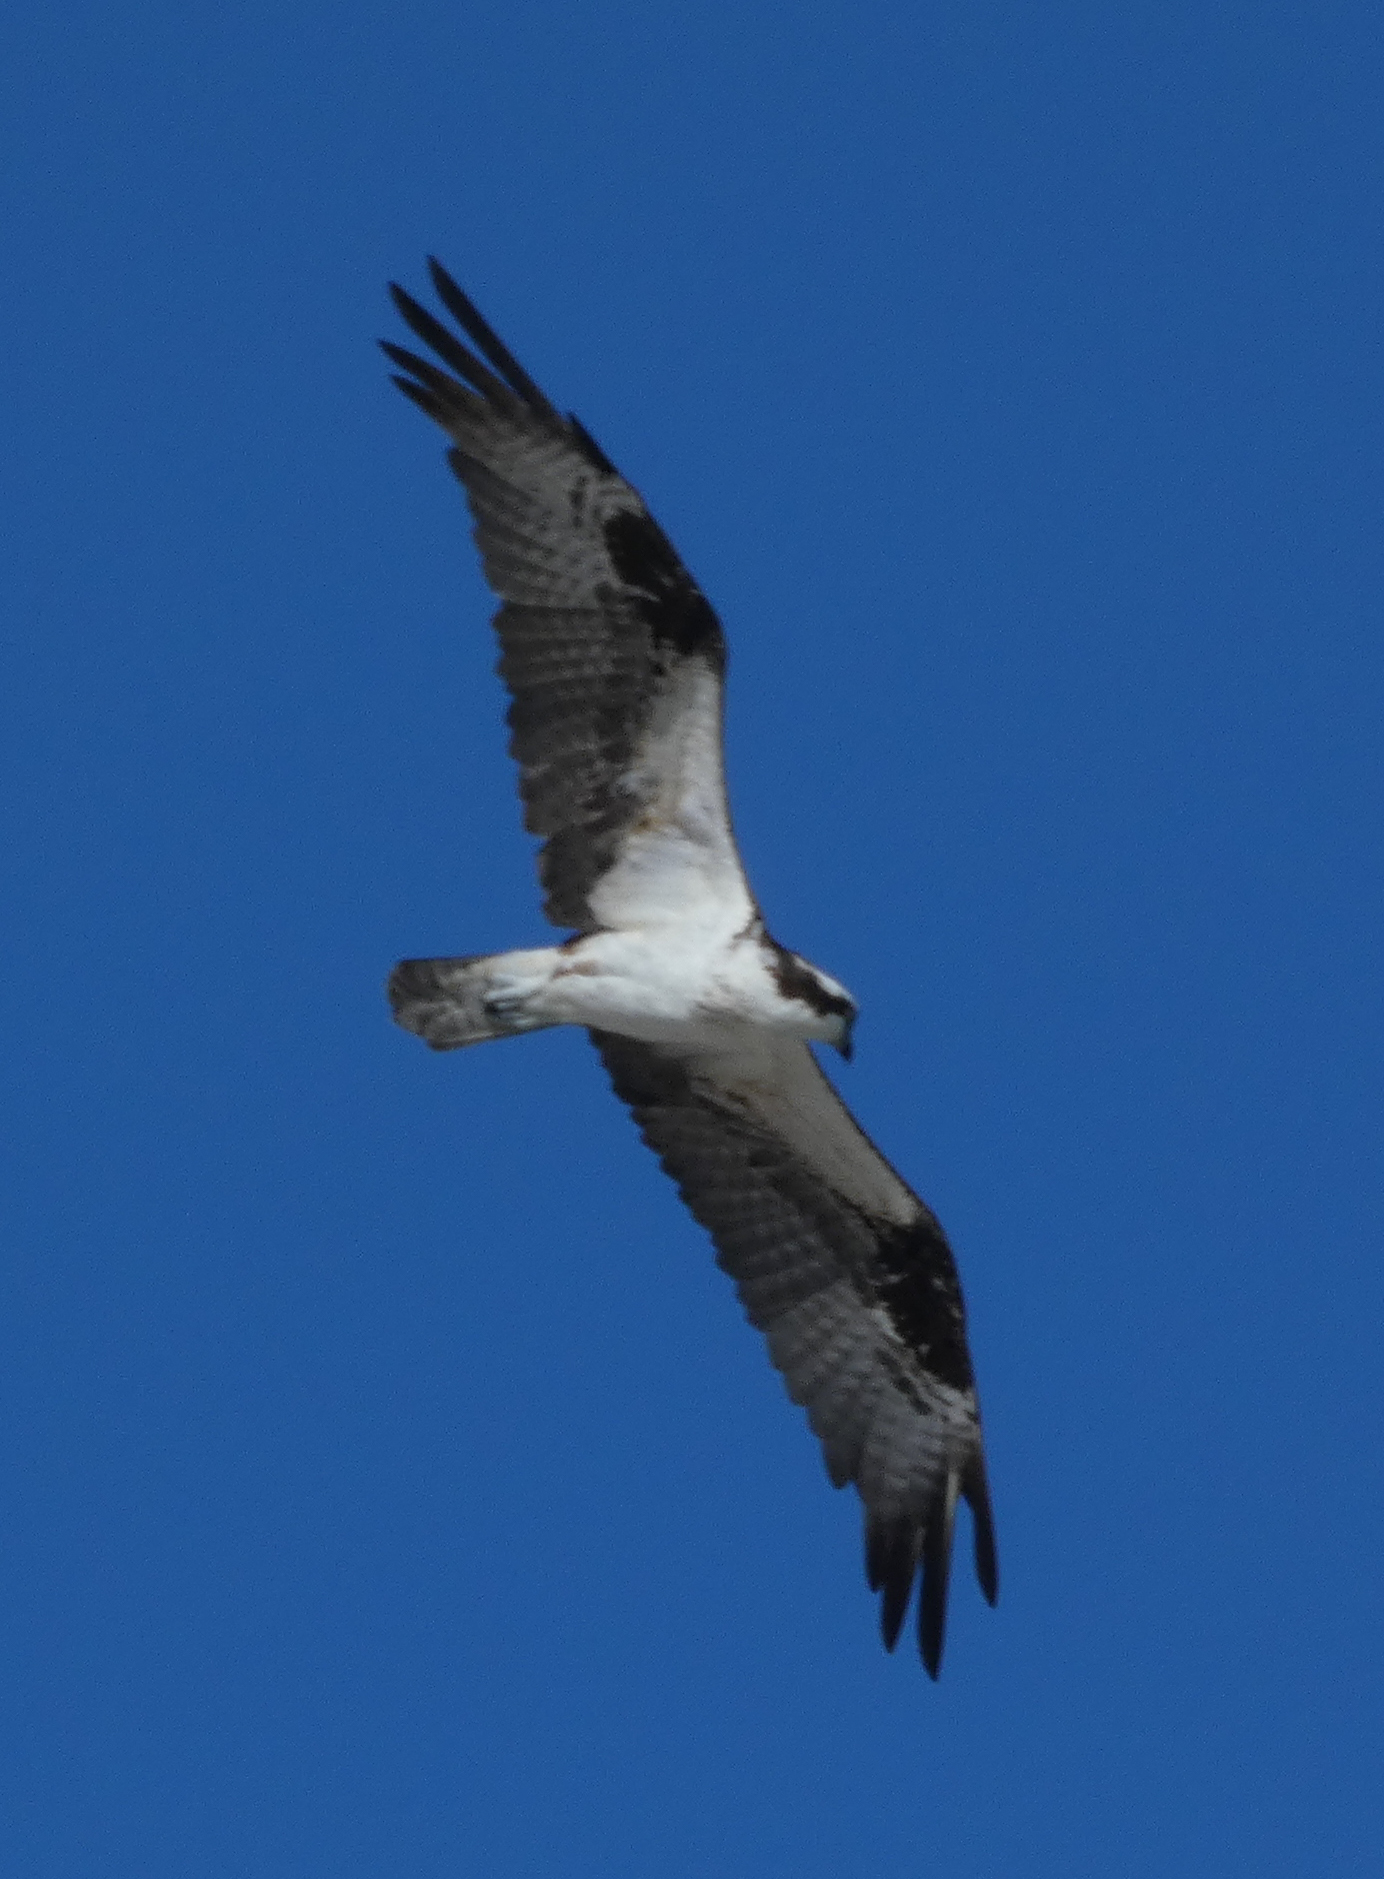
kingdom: Animalia
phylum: Chordata
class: Aves
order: Accipitriformes
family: Pandionidae
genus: Pandion
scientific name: Pandion haliaetus
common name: Osprey
